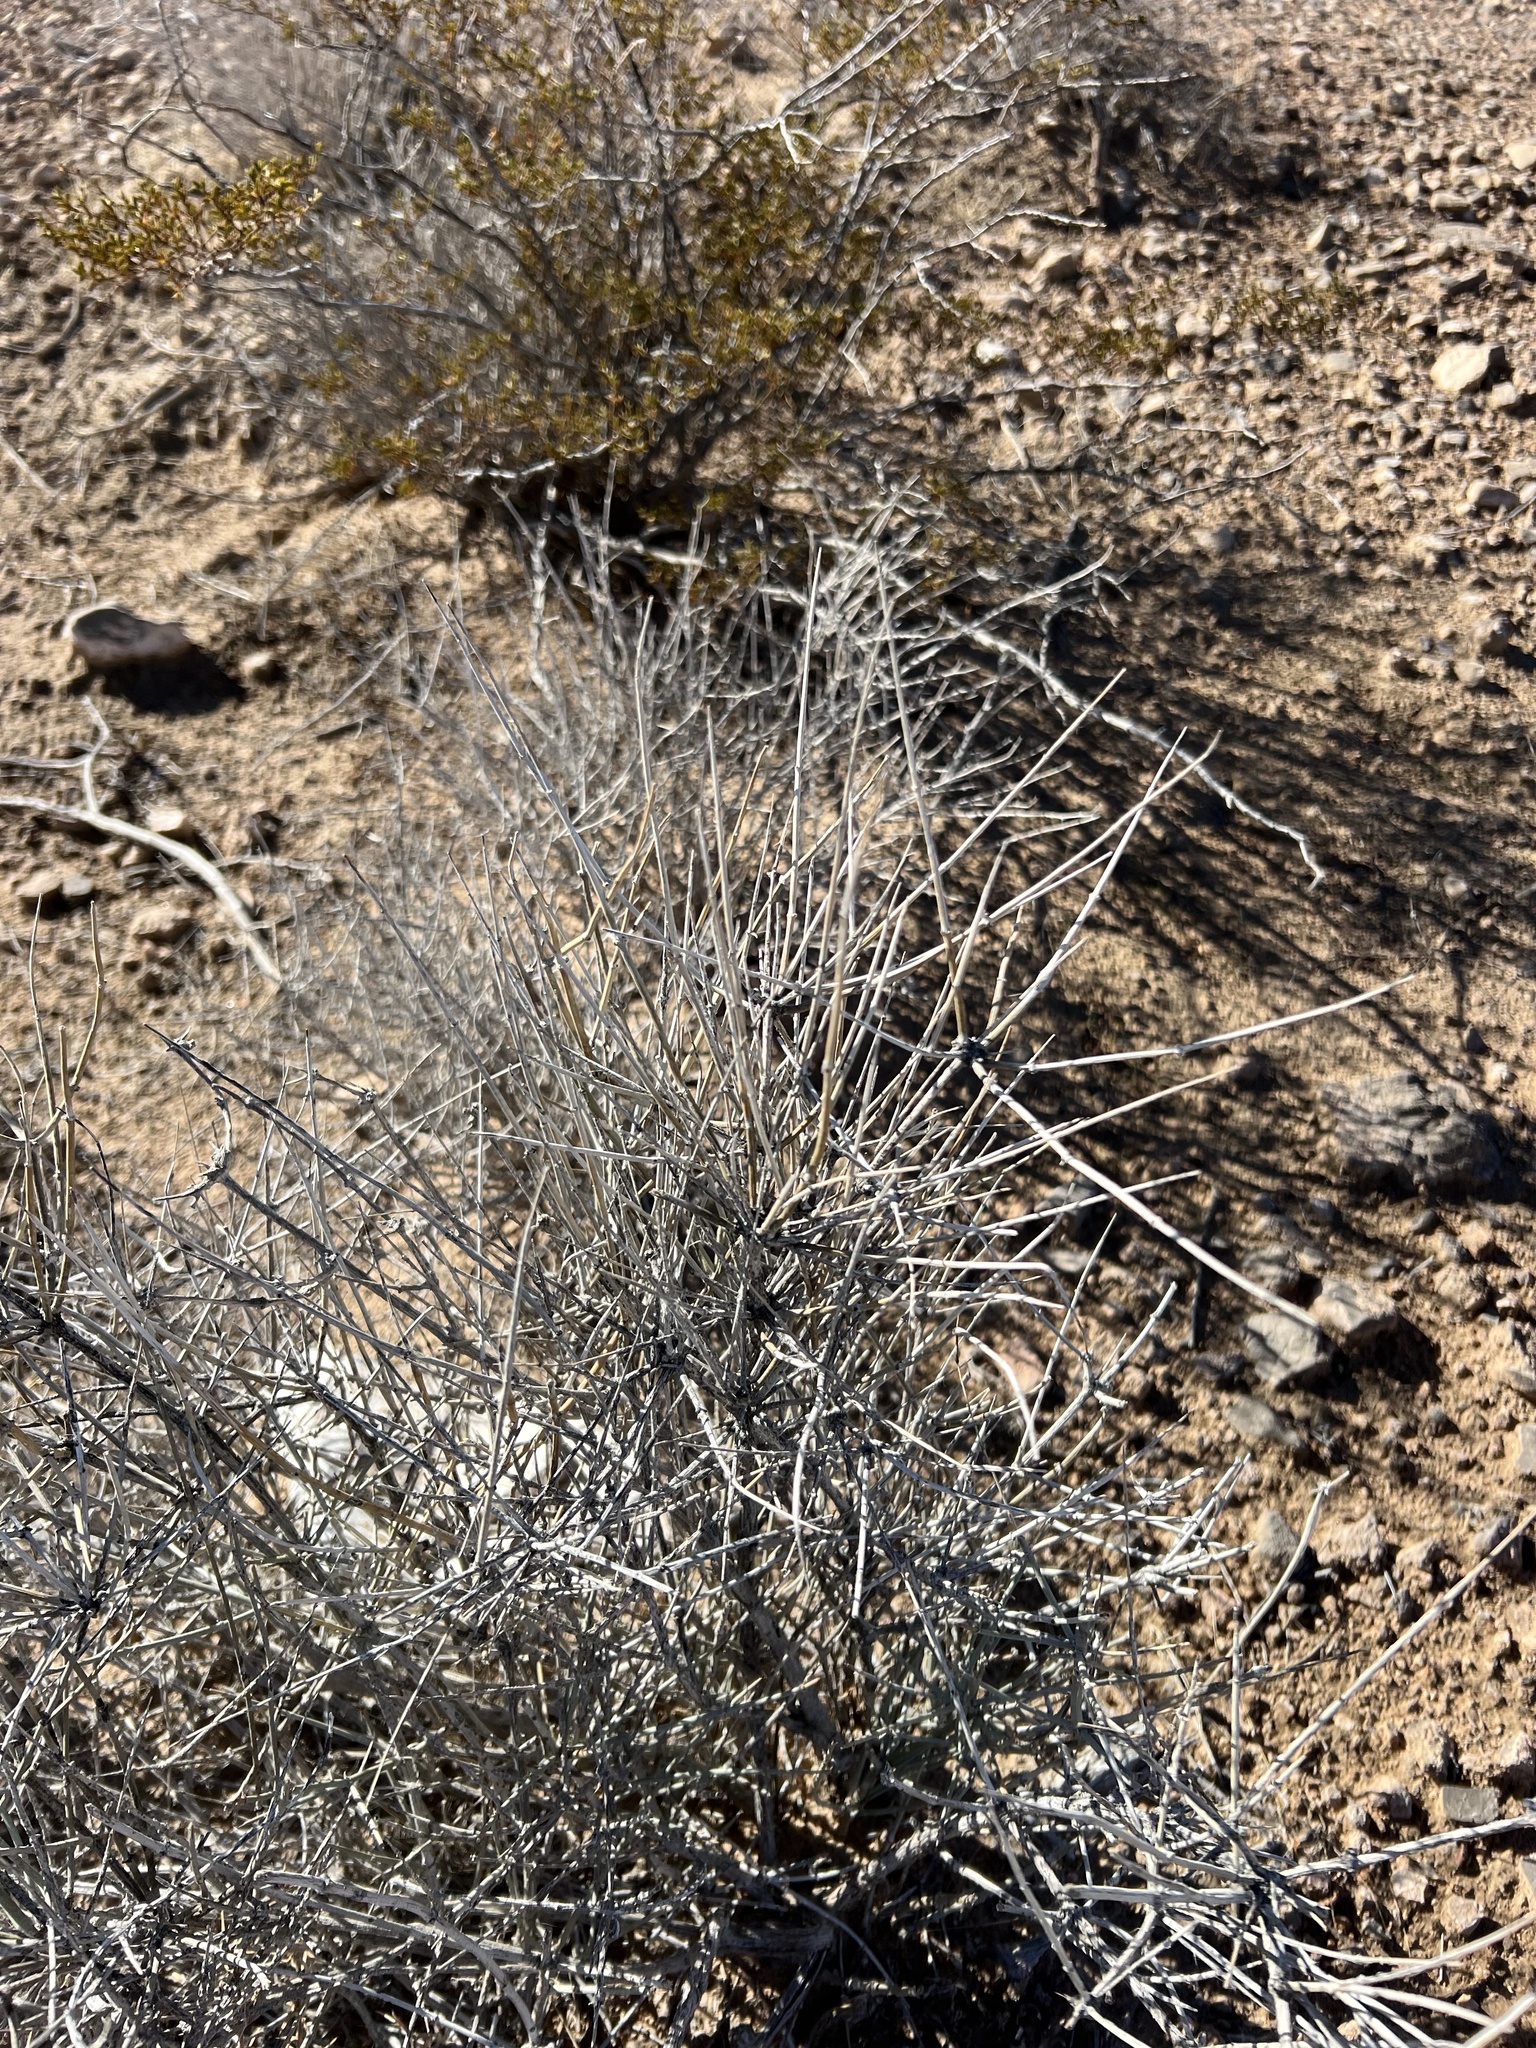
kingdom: Plantae
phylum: Tracheophyta
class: Gnetopsida
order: Ephedrales
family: Ephedraceae
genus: Ephedra
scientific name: Ephedra nevadensis
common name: Gray ephedra
